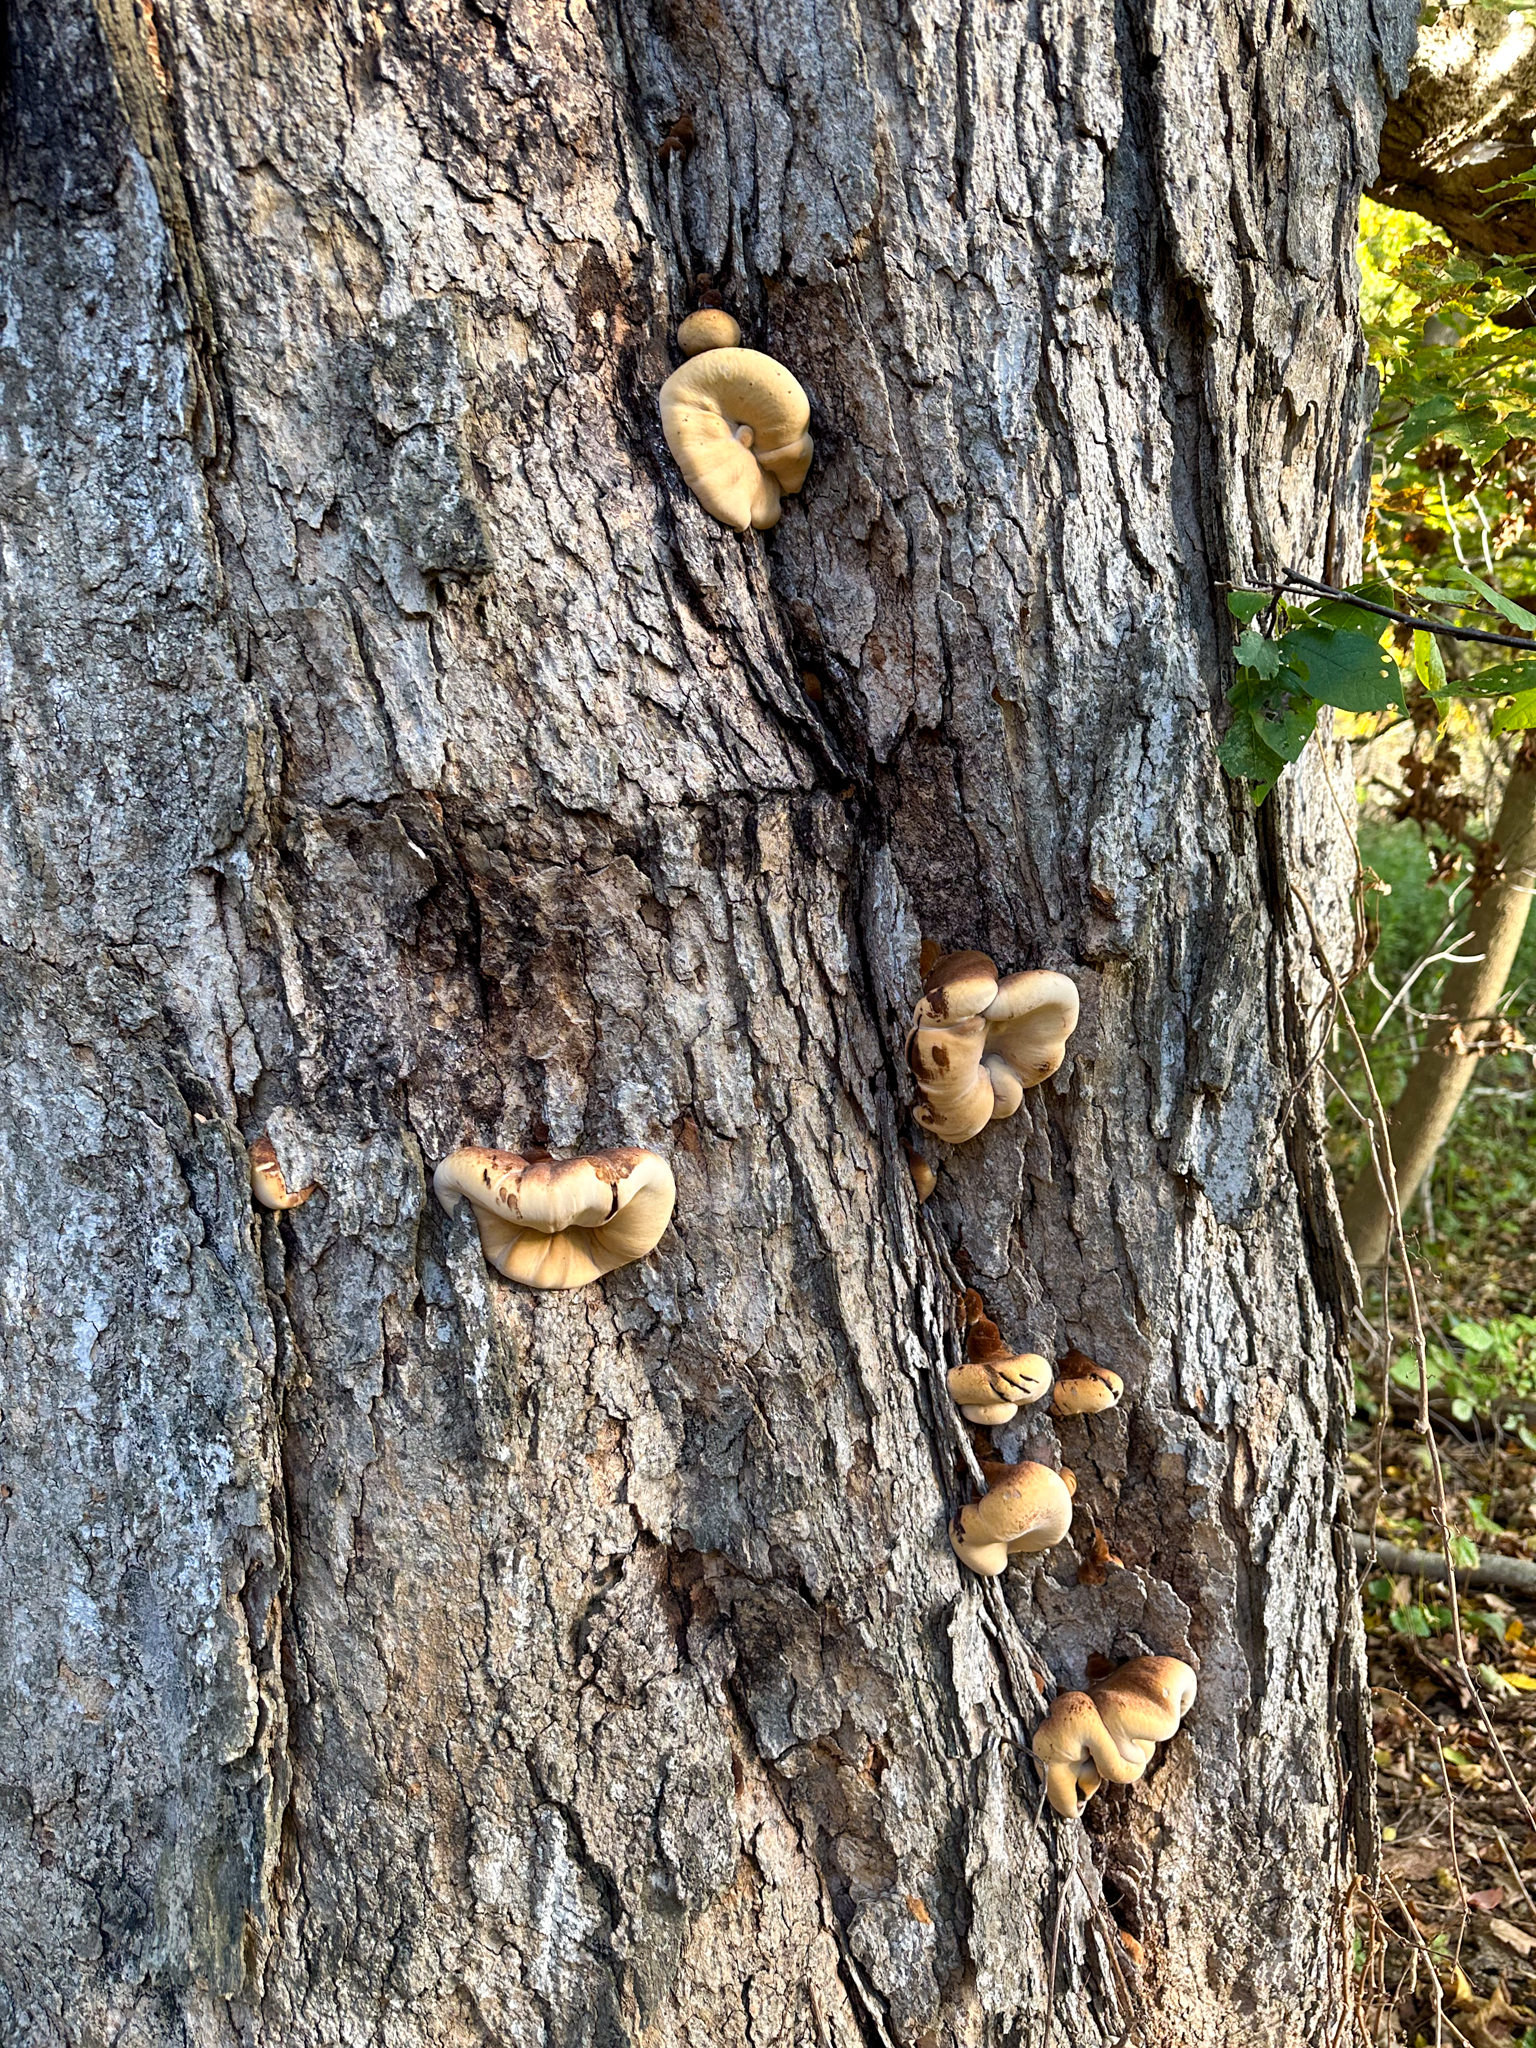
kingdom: Fungi
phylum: Basidiomycota
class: Agaricomycetes
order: Polyporales
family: Ischnodermataceae
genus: Ischnoderma
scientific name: Ischnoderma resinosum
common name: Resinous polypore
